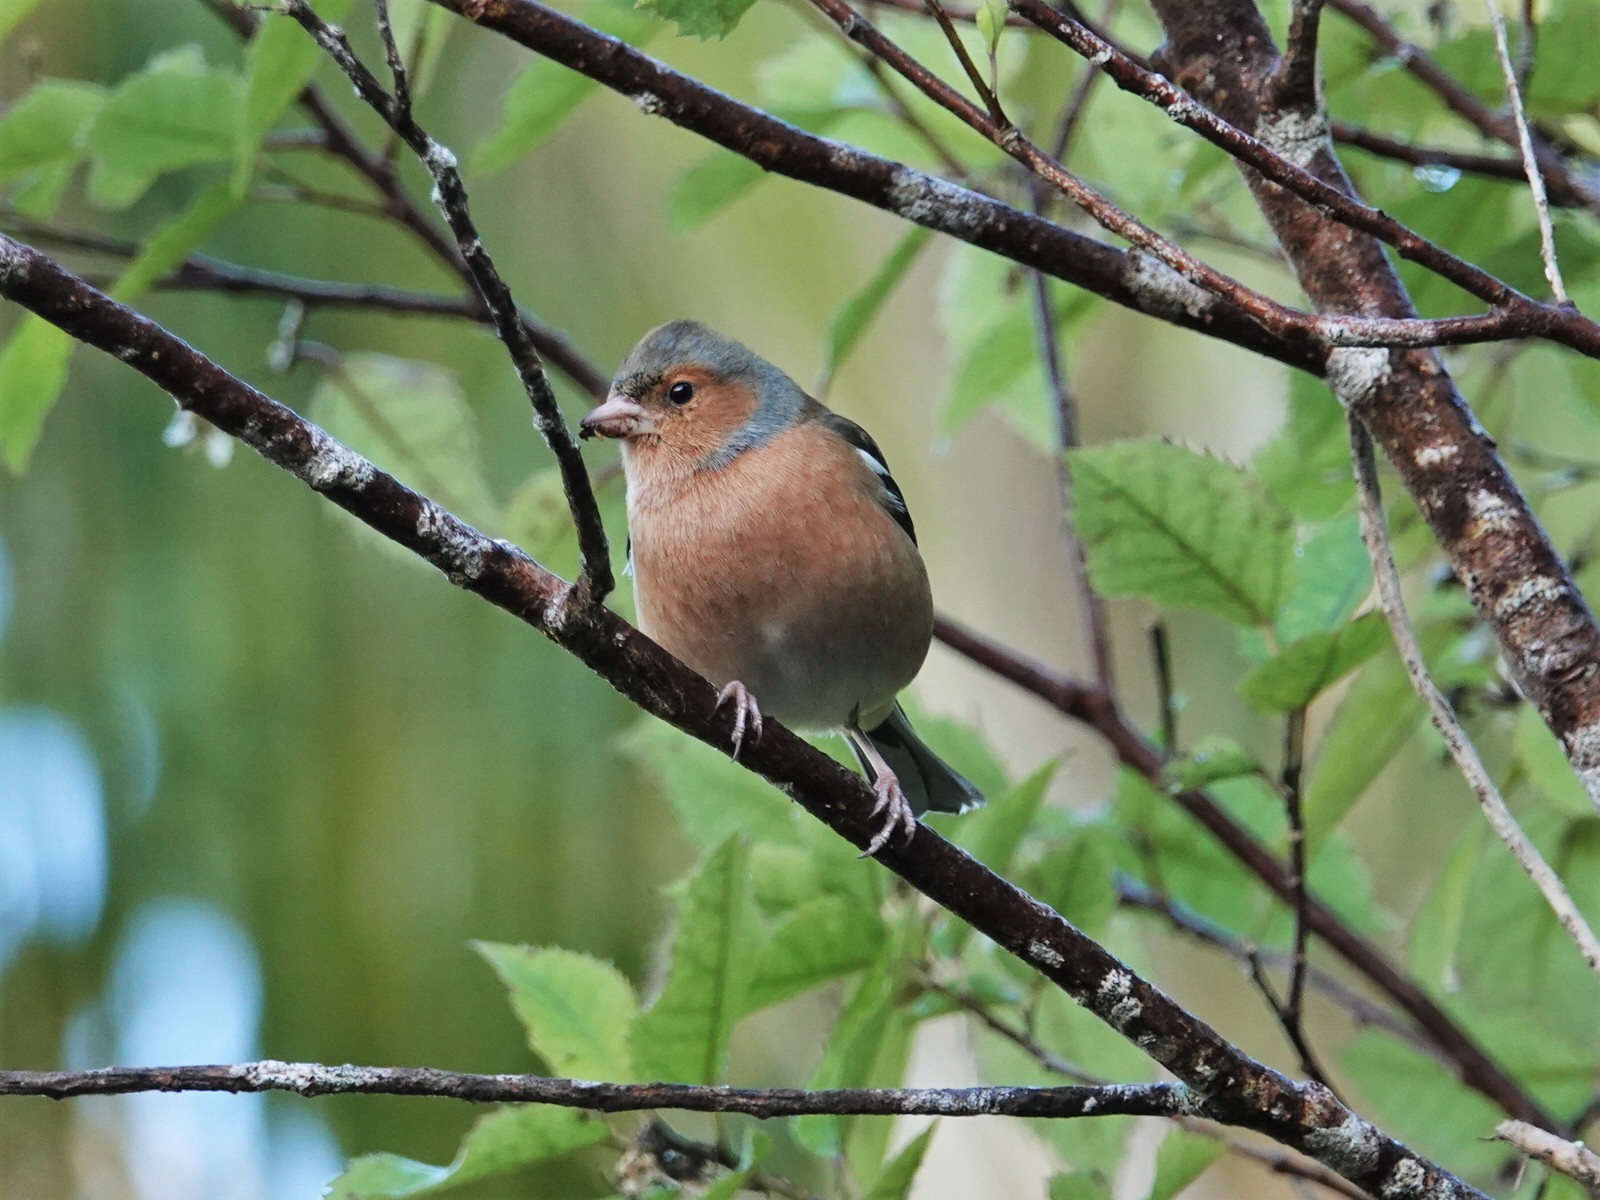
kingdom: Animalia
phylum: Chordata
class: Aves
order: Passeriformes
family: Fringillidae
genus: Fringilla
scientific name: Fringilla coelebs
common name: Common chaffinch
